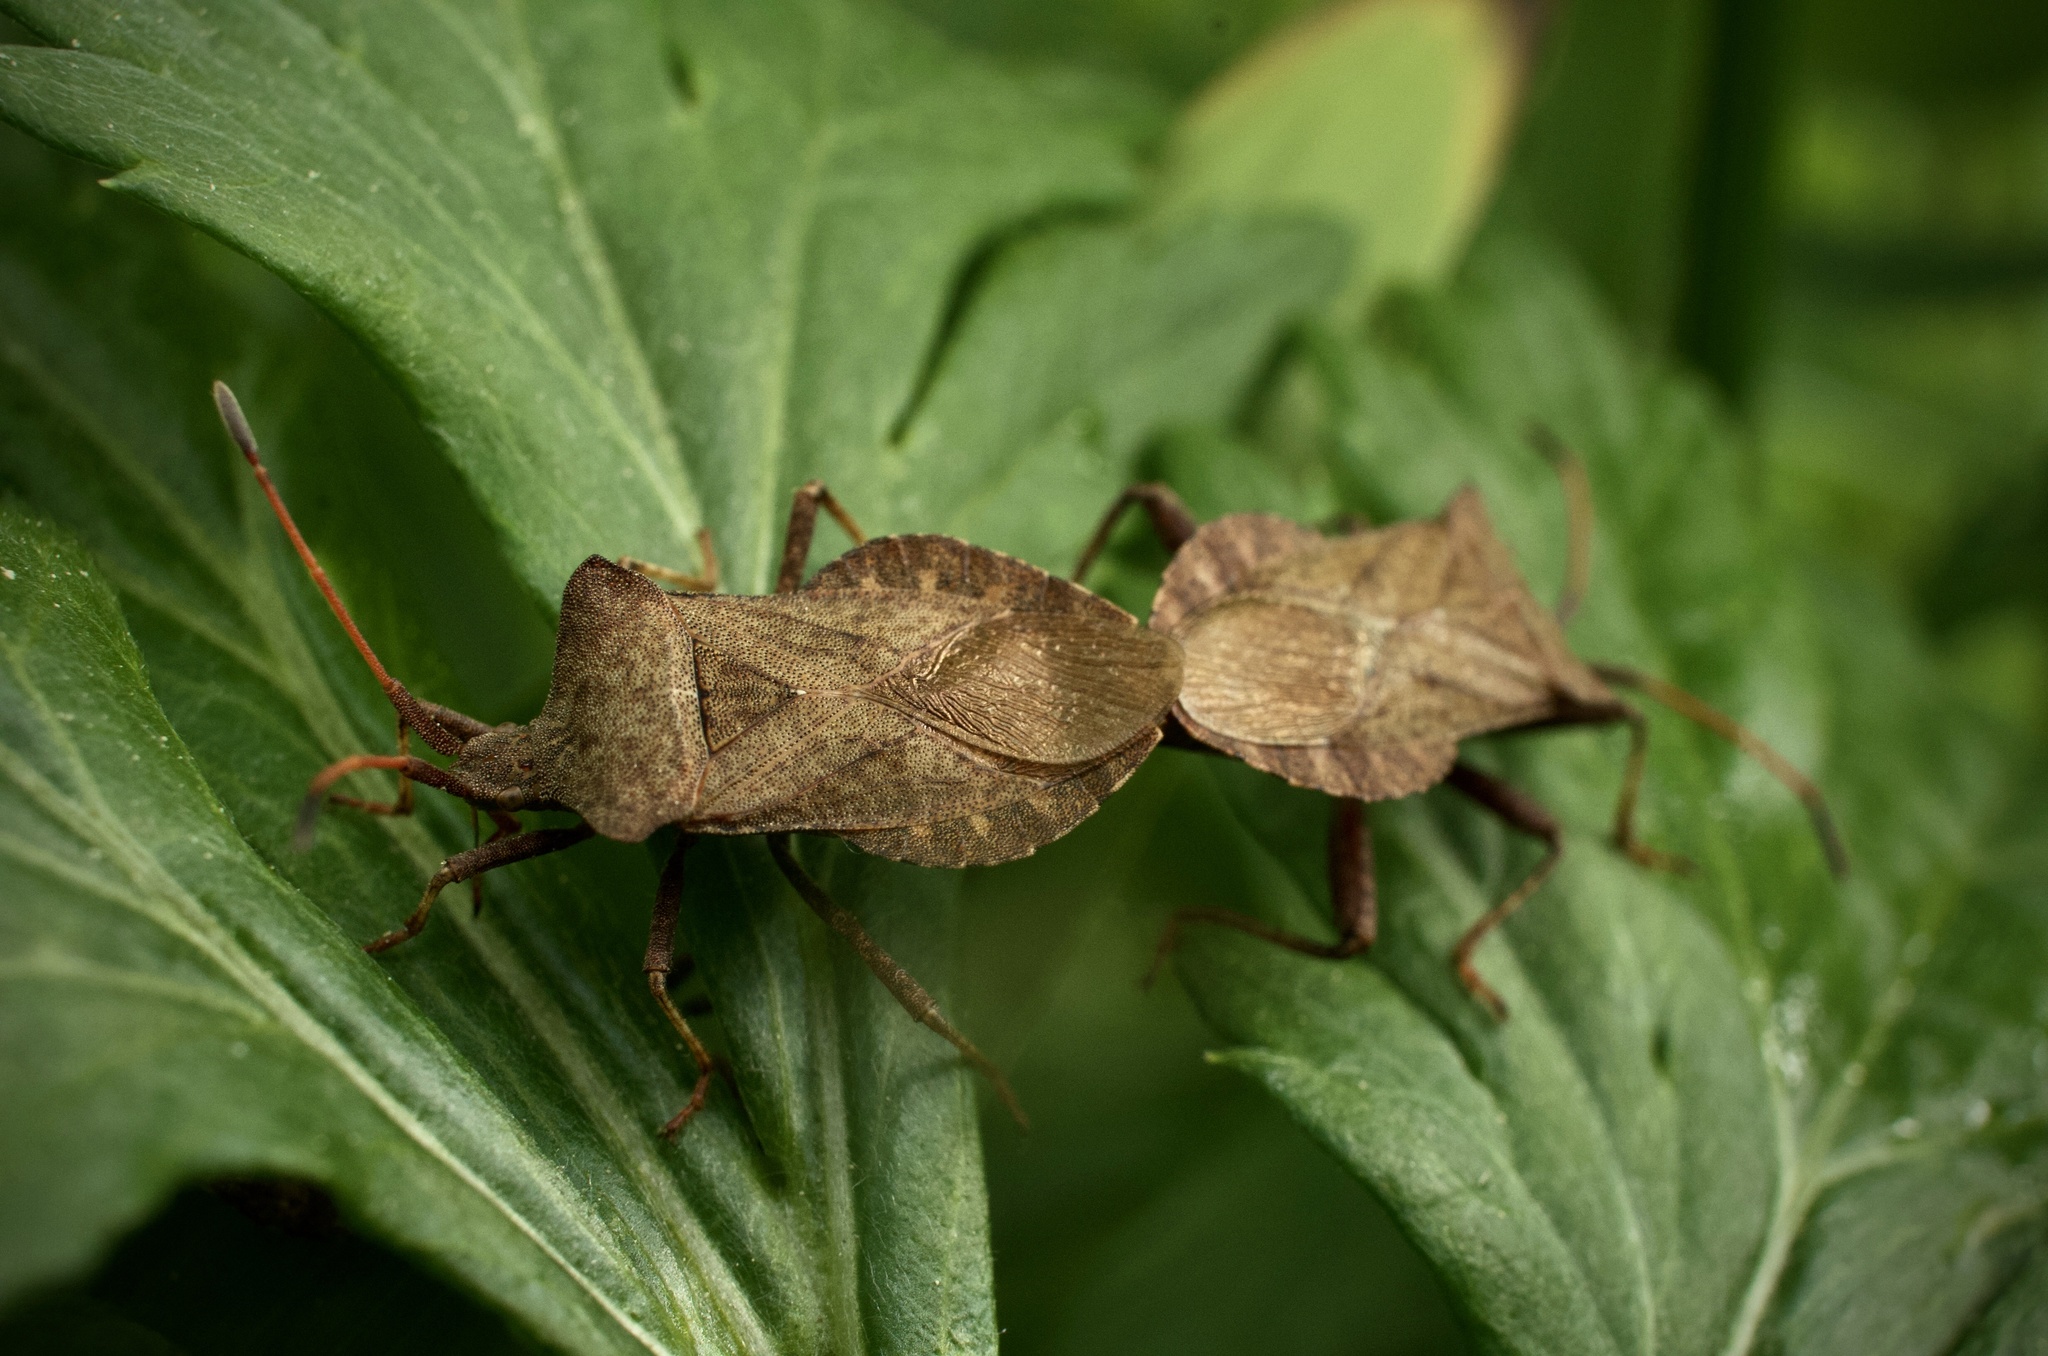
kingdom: Animalia
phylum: Arthropoda
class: Insecta
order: Hemiptera
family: Coreidae
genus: Coreus
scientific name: Coreus marginatus
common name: Dock bug
